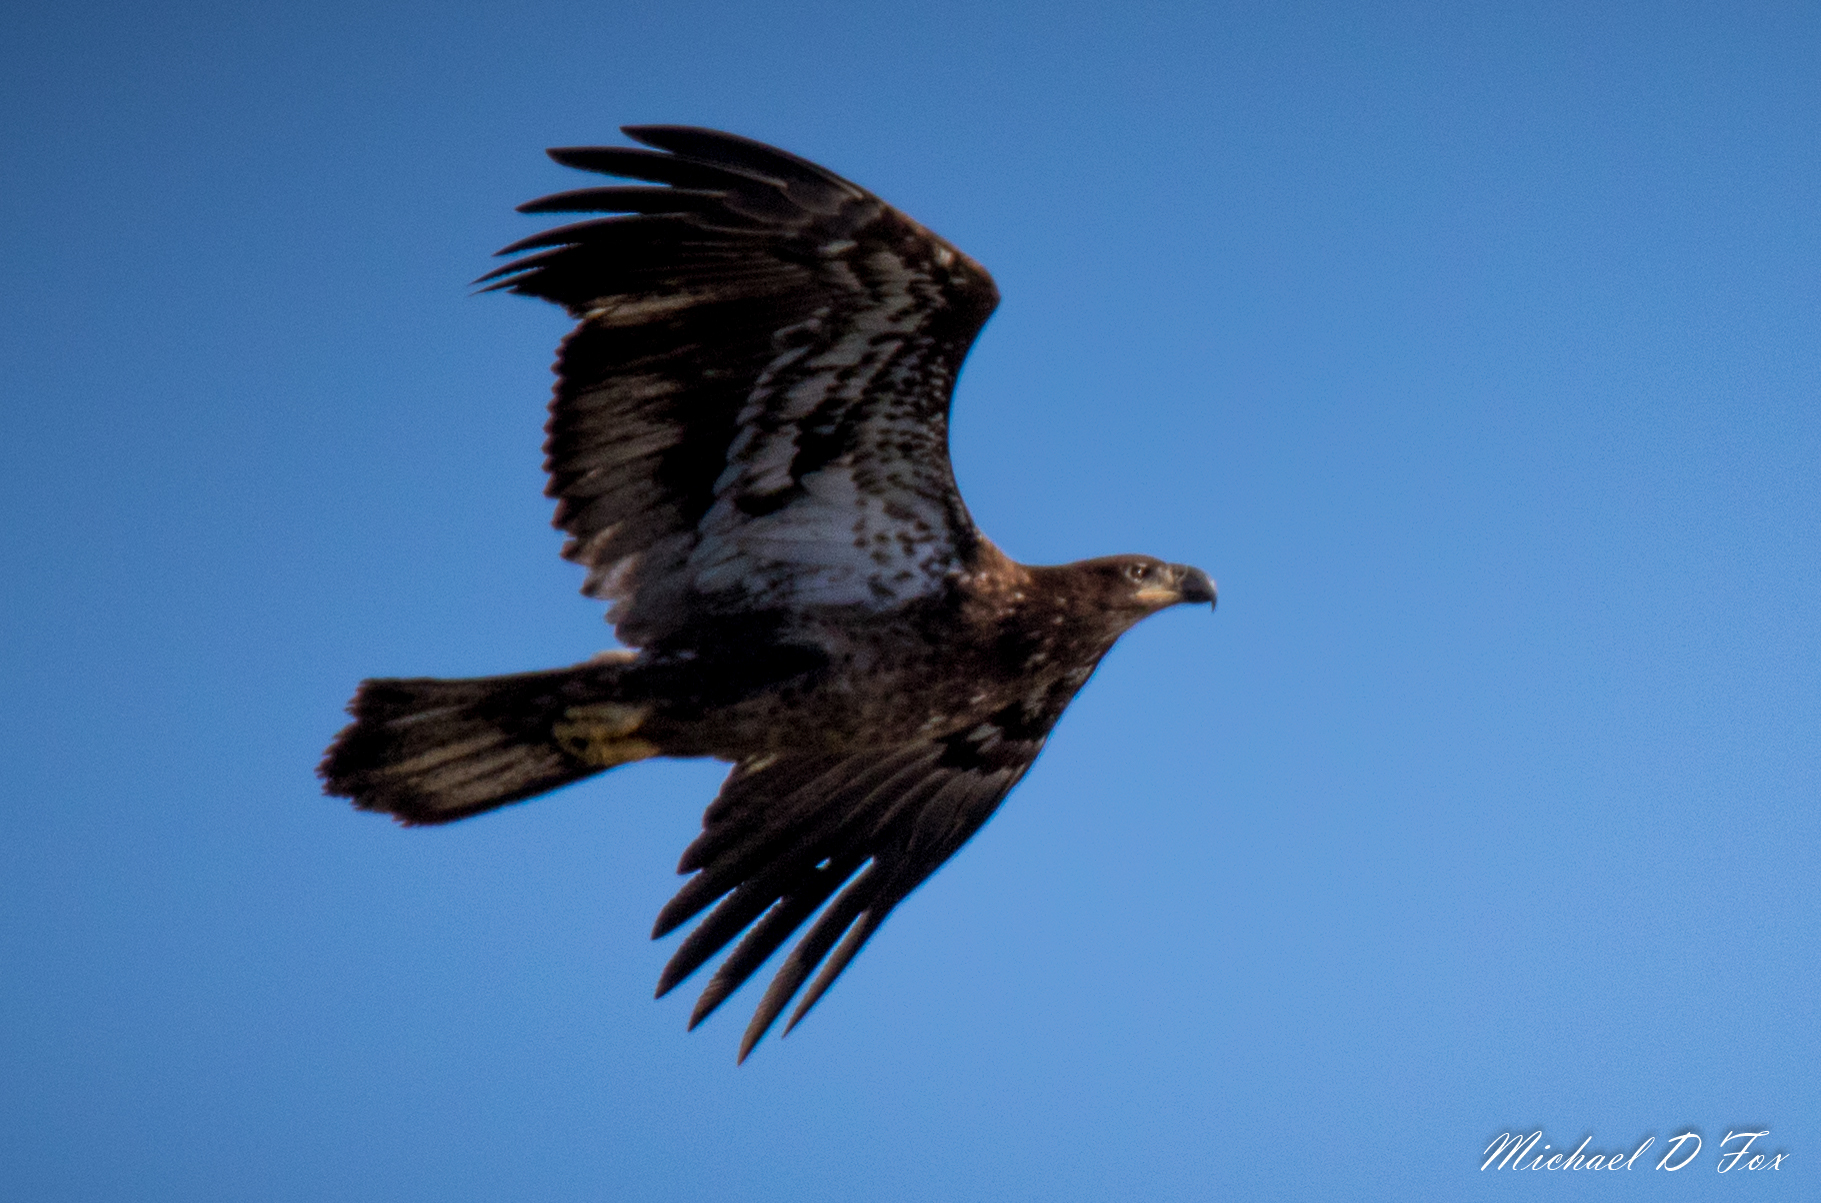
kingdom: Animalia
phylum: Chordata
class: Aves
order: Accipitriformes
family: Accipitridae
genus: Haliaeetus
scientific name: Haliaeetus leucocephalus
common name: Bald eagle
